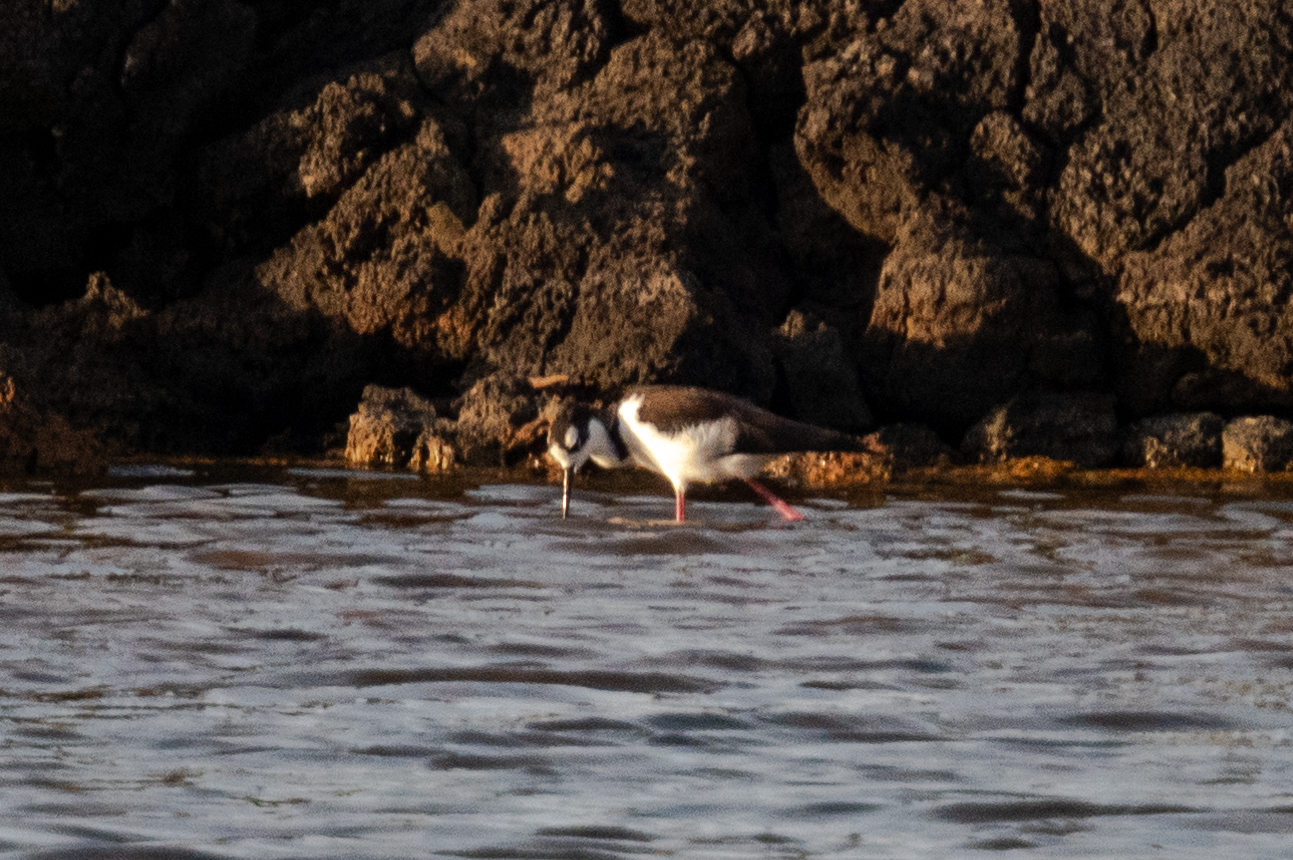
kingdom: Animalia
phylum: Chordata
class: Aves
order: Charadriiformes
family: Recurvirostridae
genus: Himantopus
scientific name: Himantopus mexicanus
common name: Black-necked stilt
